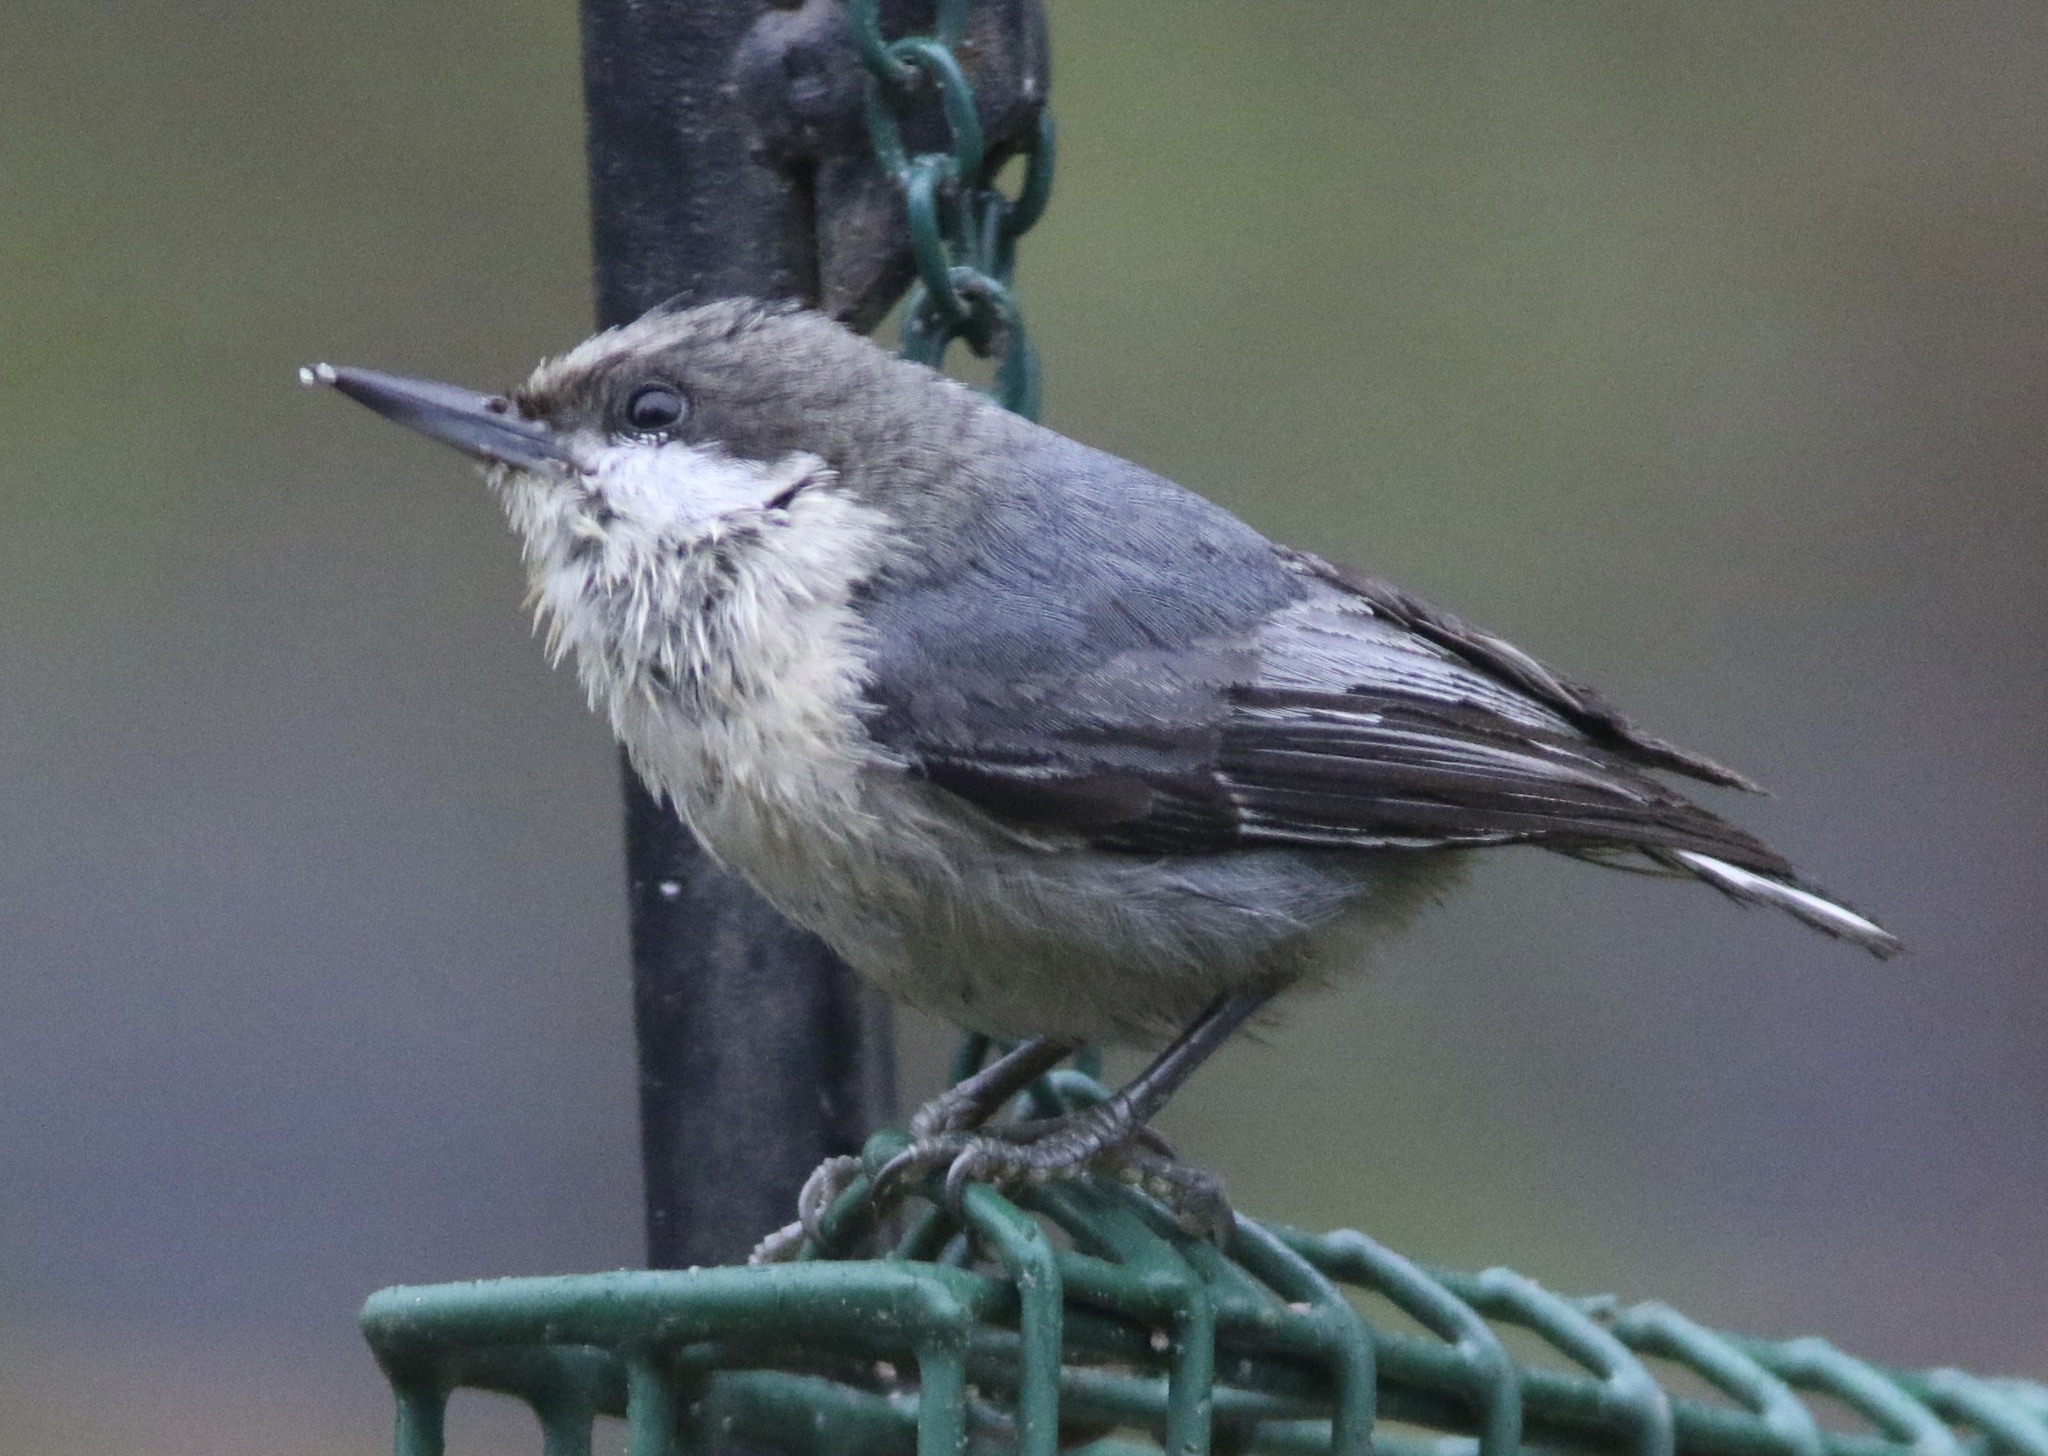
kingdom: Animalia
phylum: Chordata
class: Aves
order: Passeriformes
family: Sittidae
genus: Sitta
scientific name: Sitta pygmaea
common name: Pygmy nuthatch
